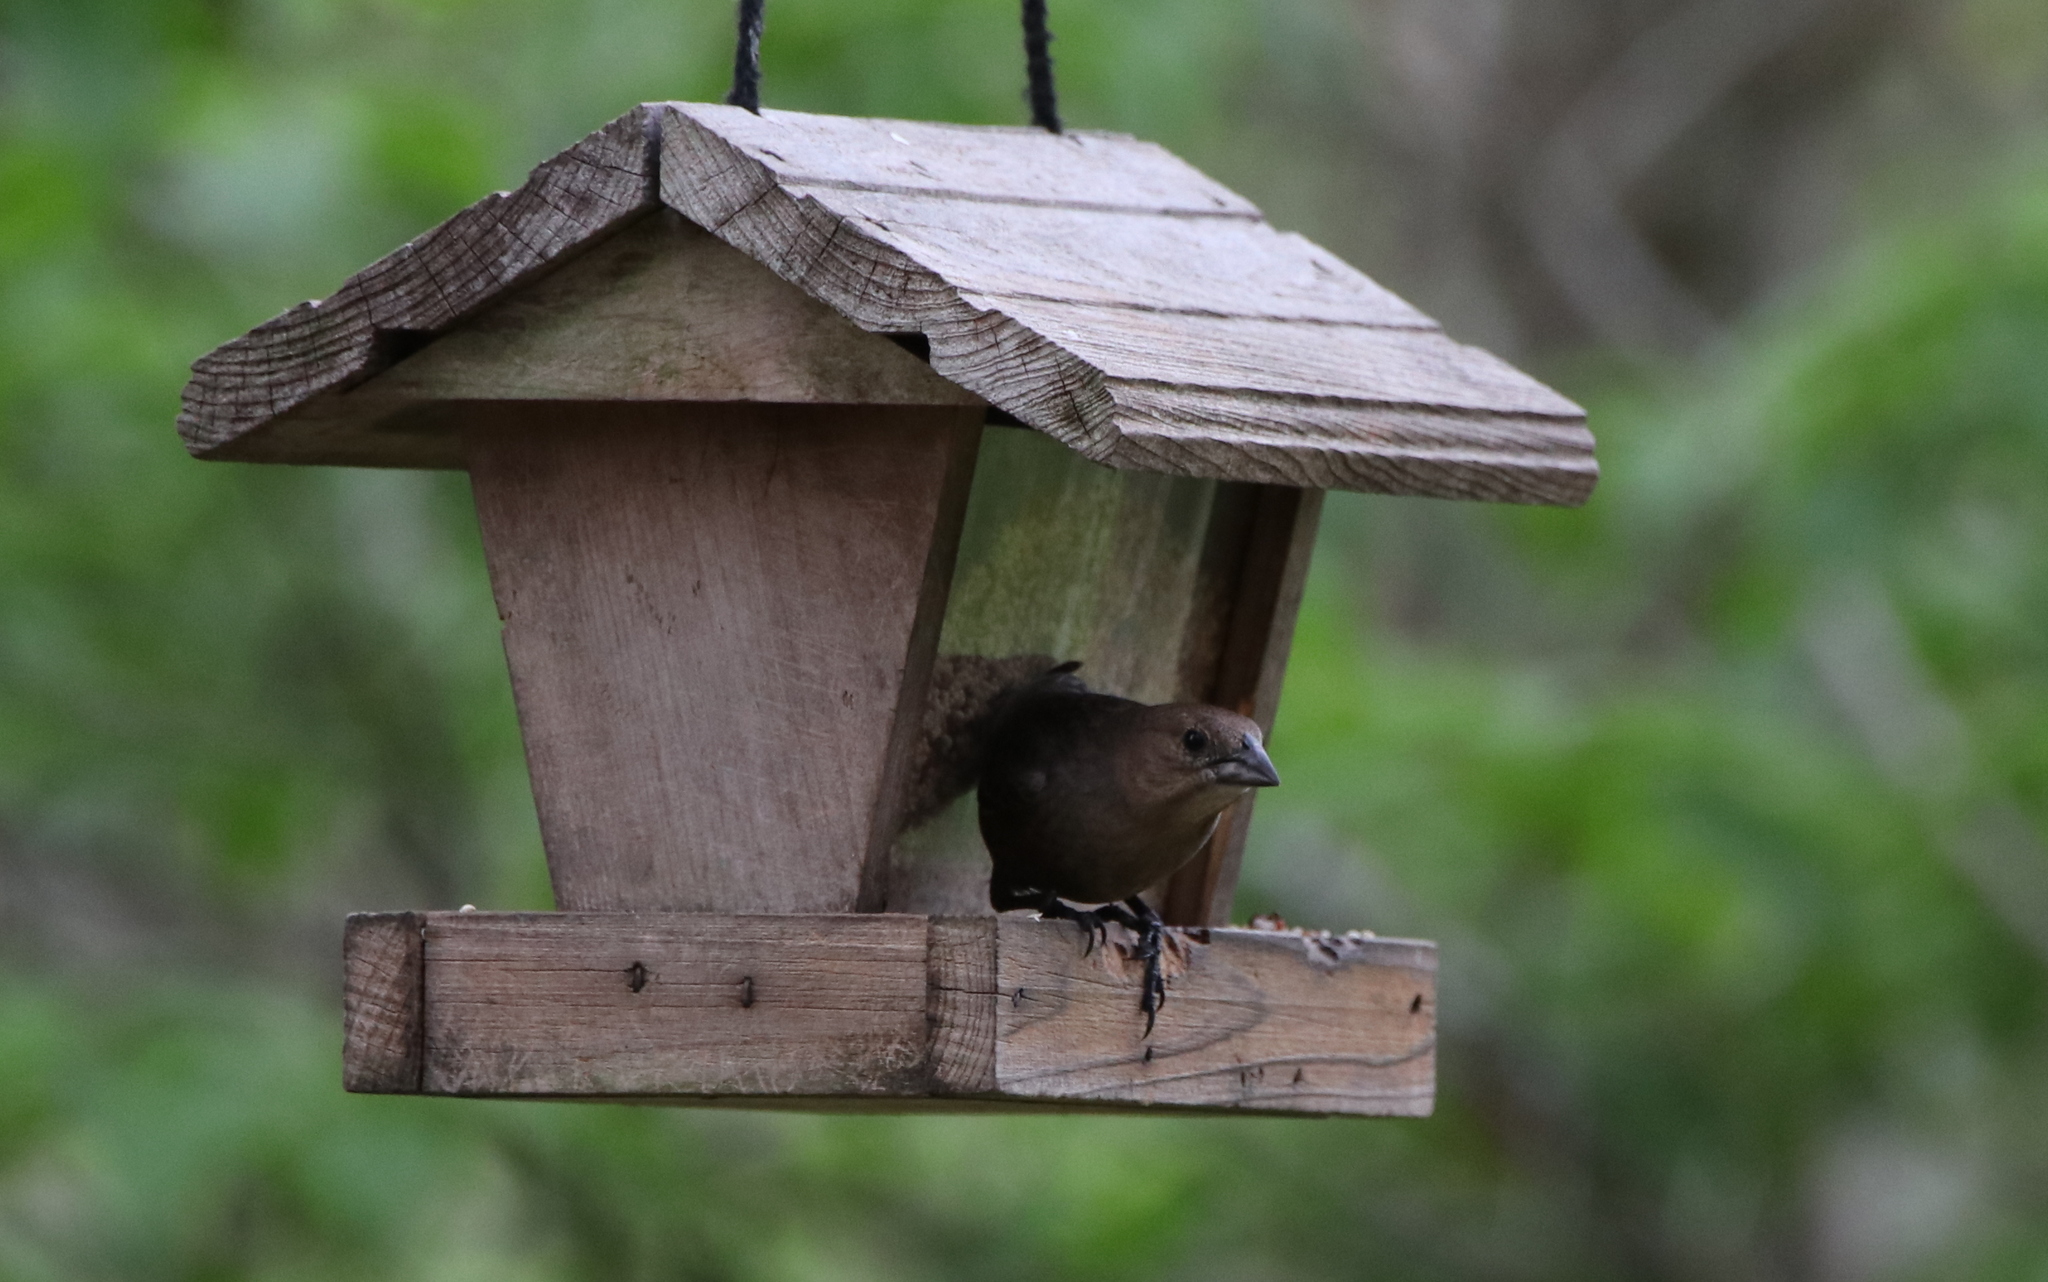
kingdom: Animalia
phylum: Chordata
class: Aves
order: Passeriformes
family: Icteridae
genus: Molothrus
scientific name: Molothrus ater
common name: Brown-headed cowbird
